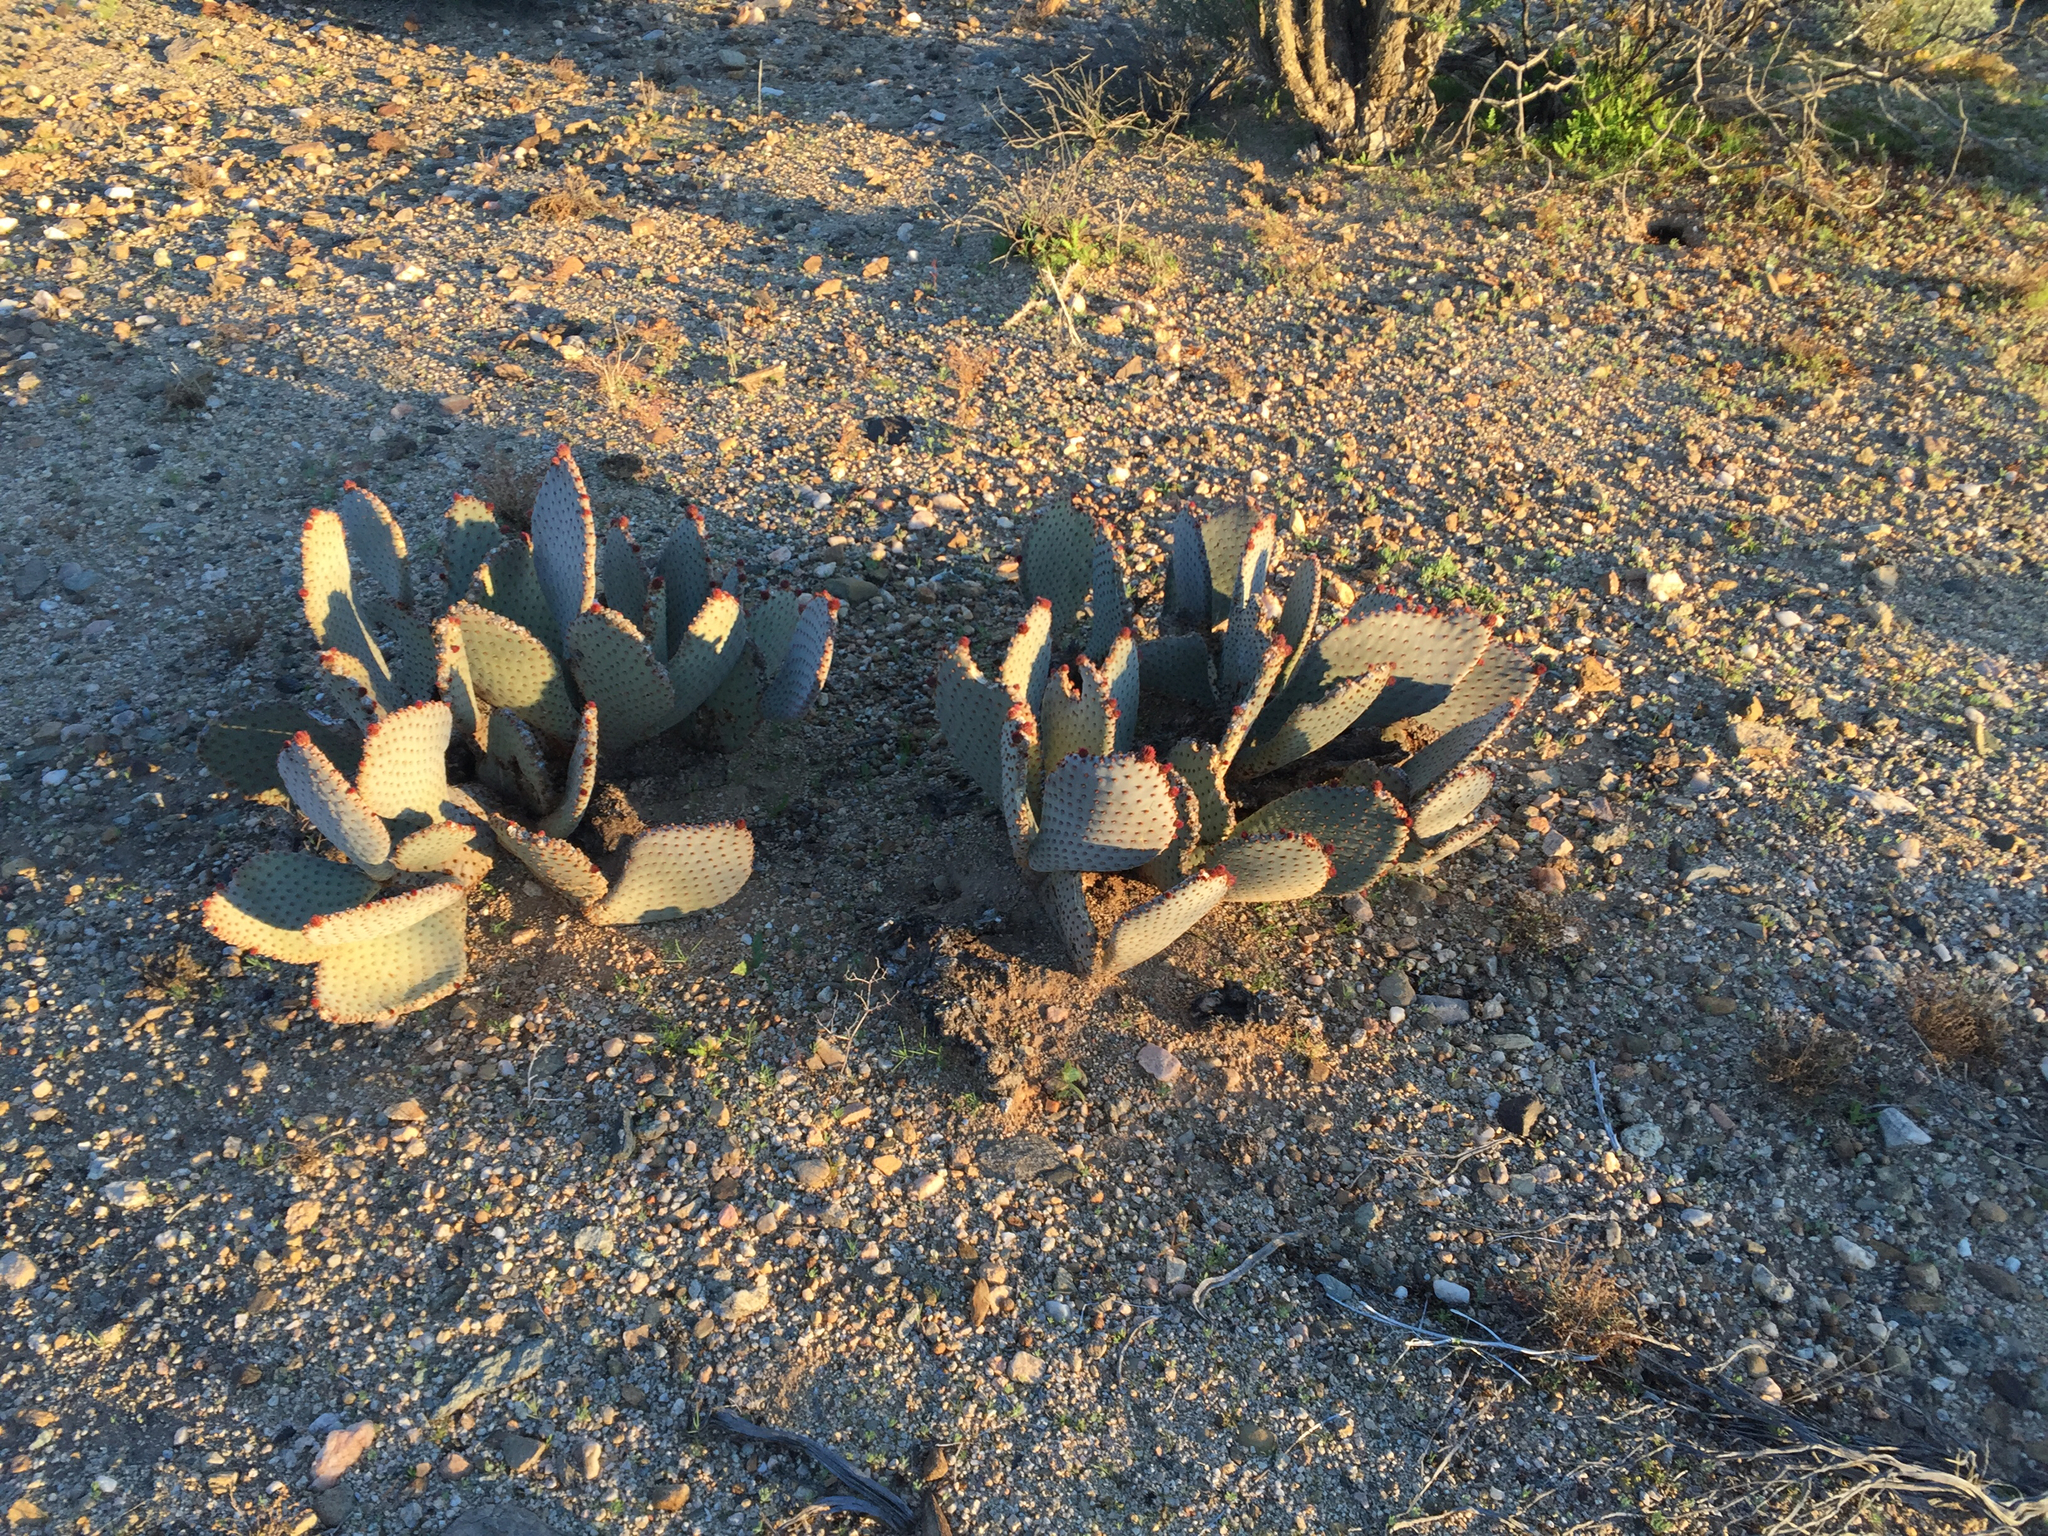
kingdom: Plantae
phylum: Tracheophyta
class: Magnoliopsida
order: Caryophyllales
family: Cactaceae
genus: Opuntia
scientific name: Opuntia basilaris
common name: Beavertail prickly-pear
